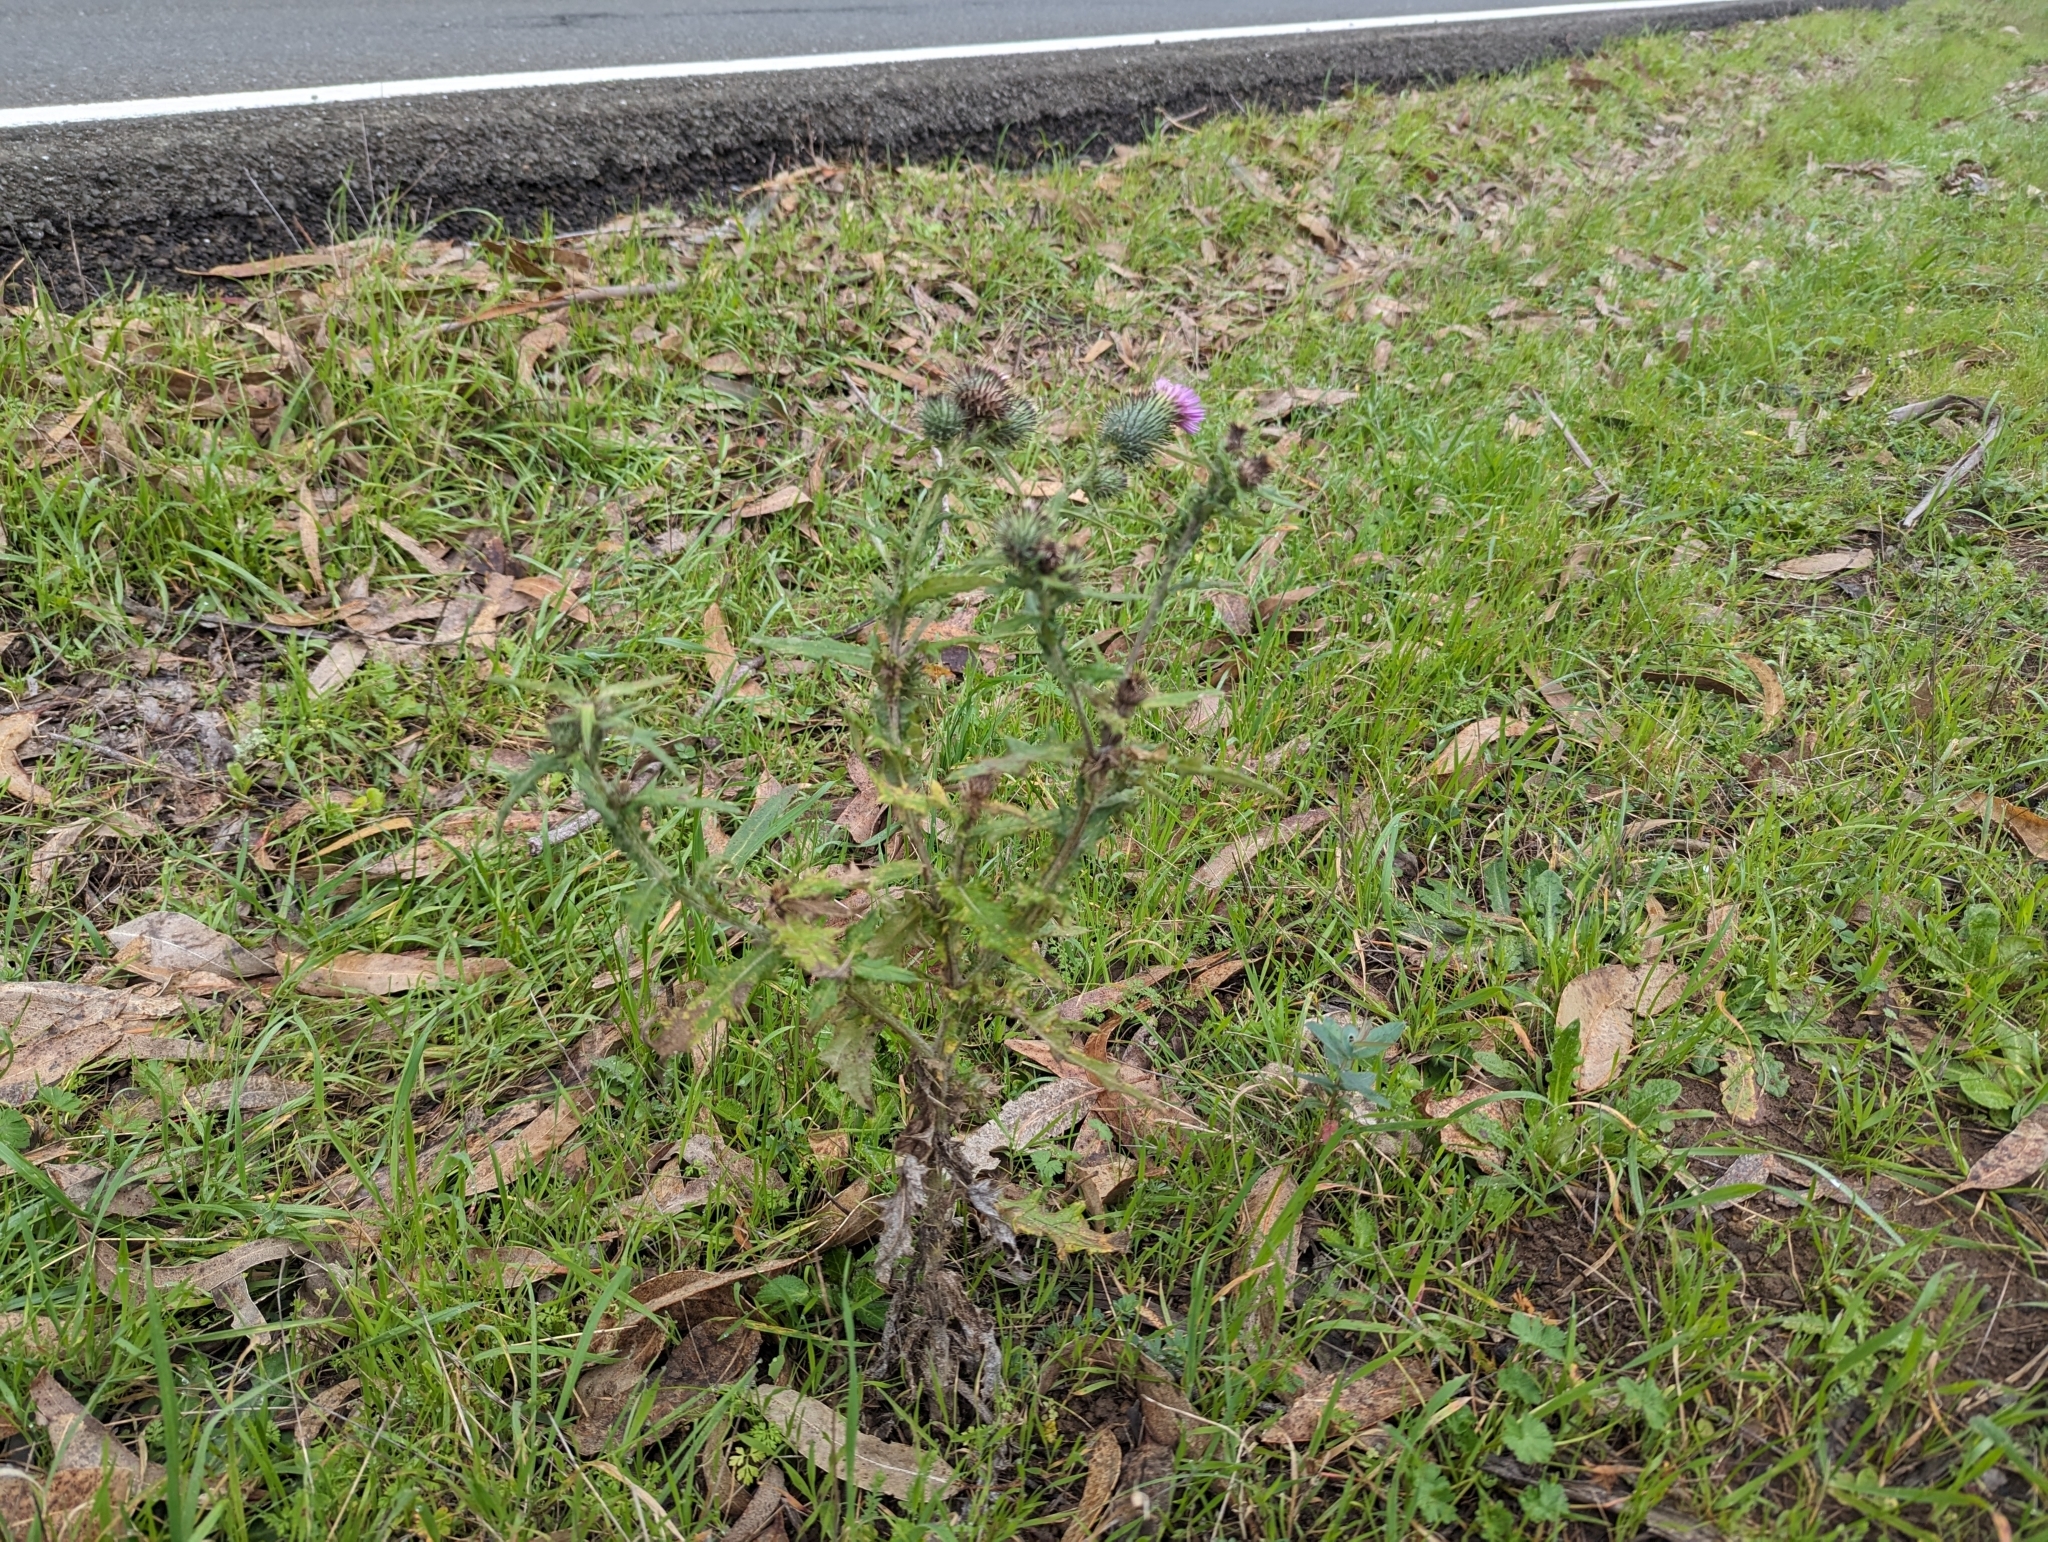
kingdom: Plantae
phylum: Tracheophyta
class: Magnoliopsida
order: Asterales
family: Asteraceae
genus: Cirsium
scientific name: Cirsium vulgare
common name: Bull thistle
